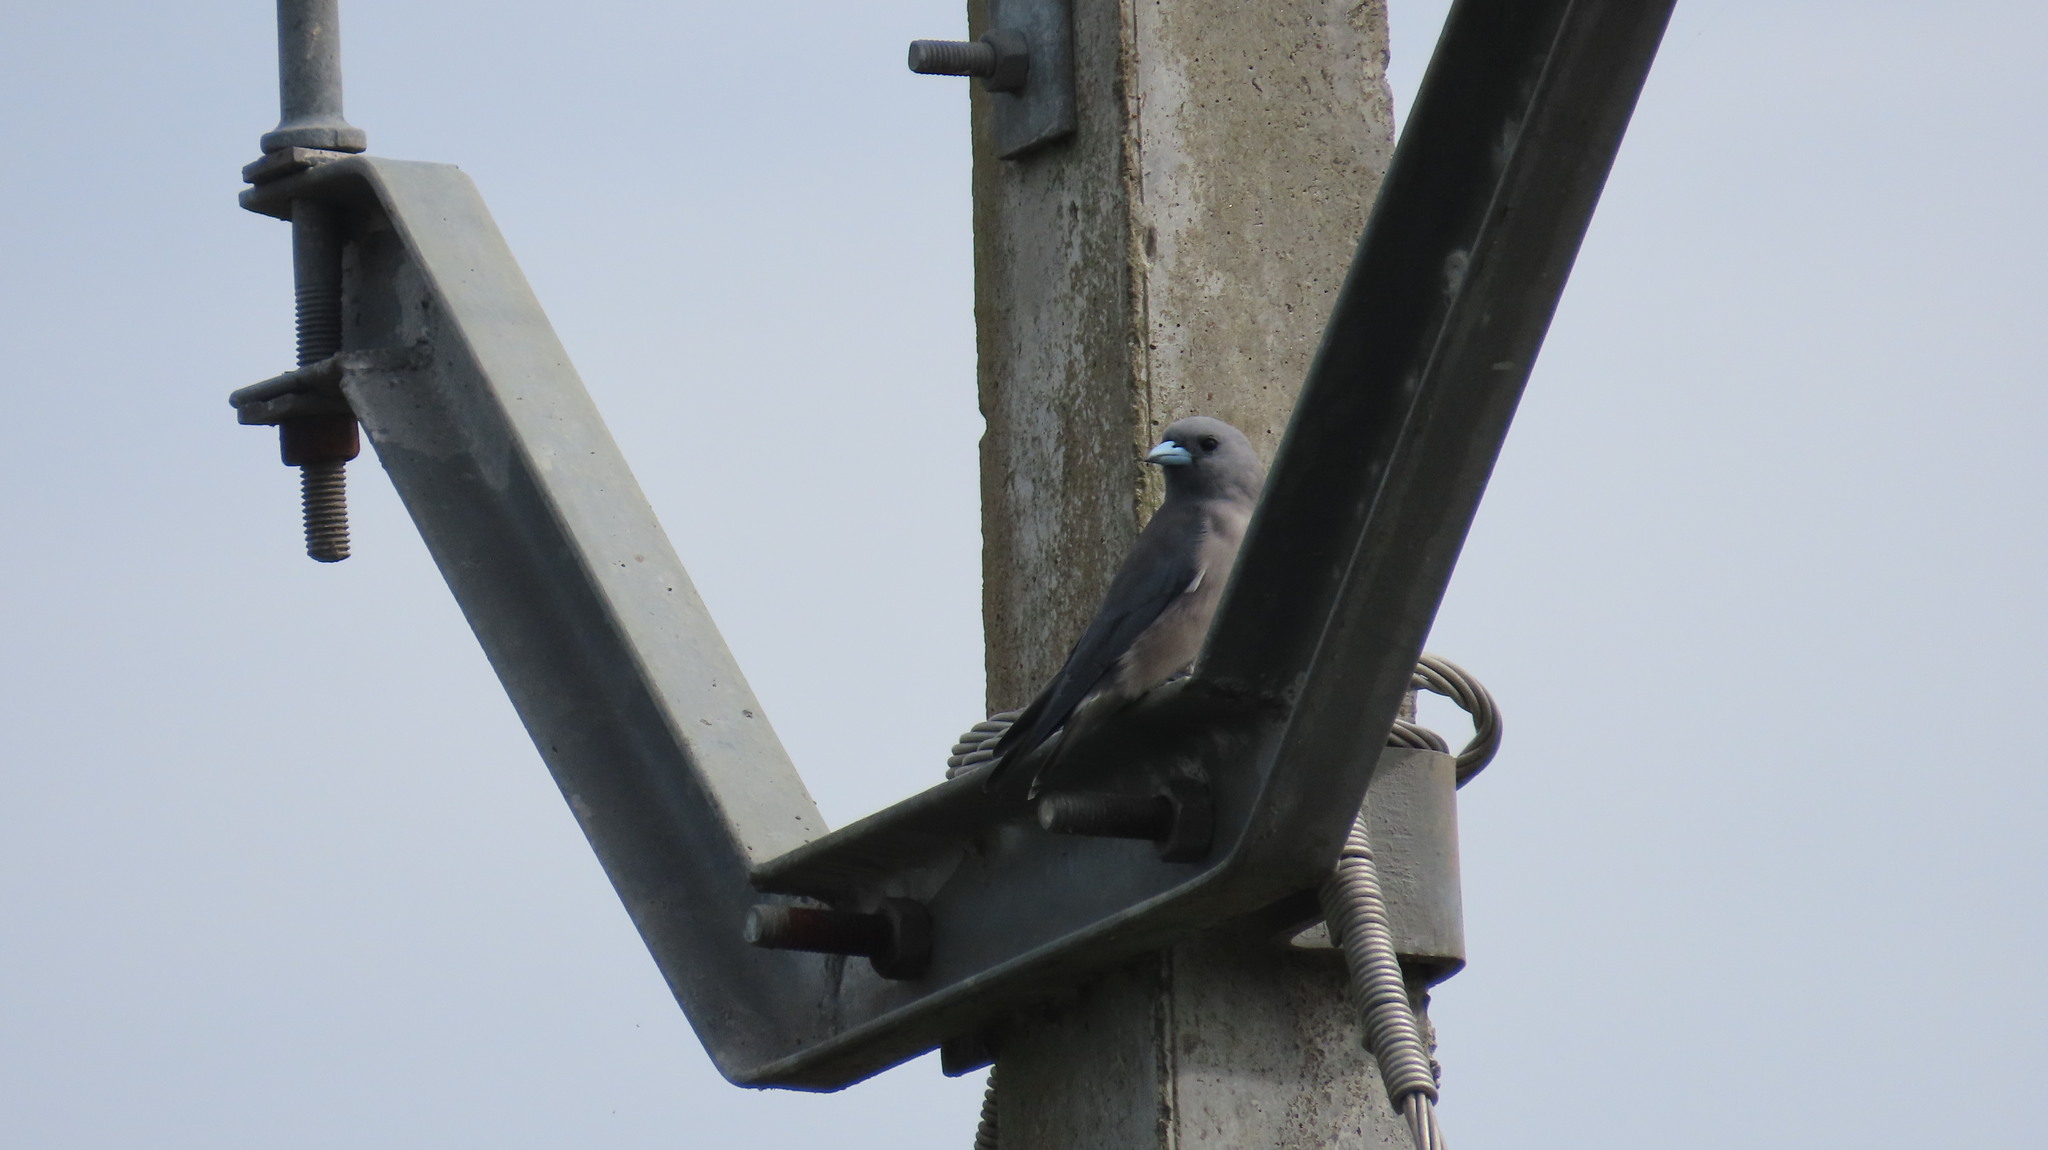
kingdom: Animalia
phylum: Chordata
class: Aves
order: Passeriformes
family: Artamidae
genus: Artamus
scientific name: Artamus fuscus
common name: Ashy woodswallow
